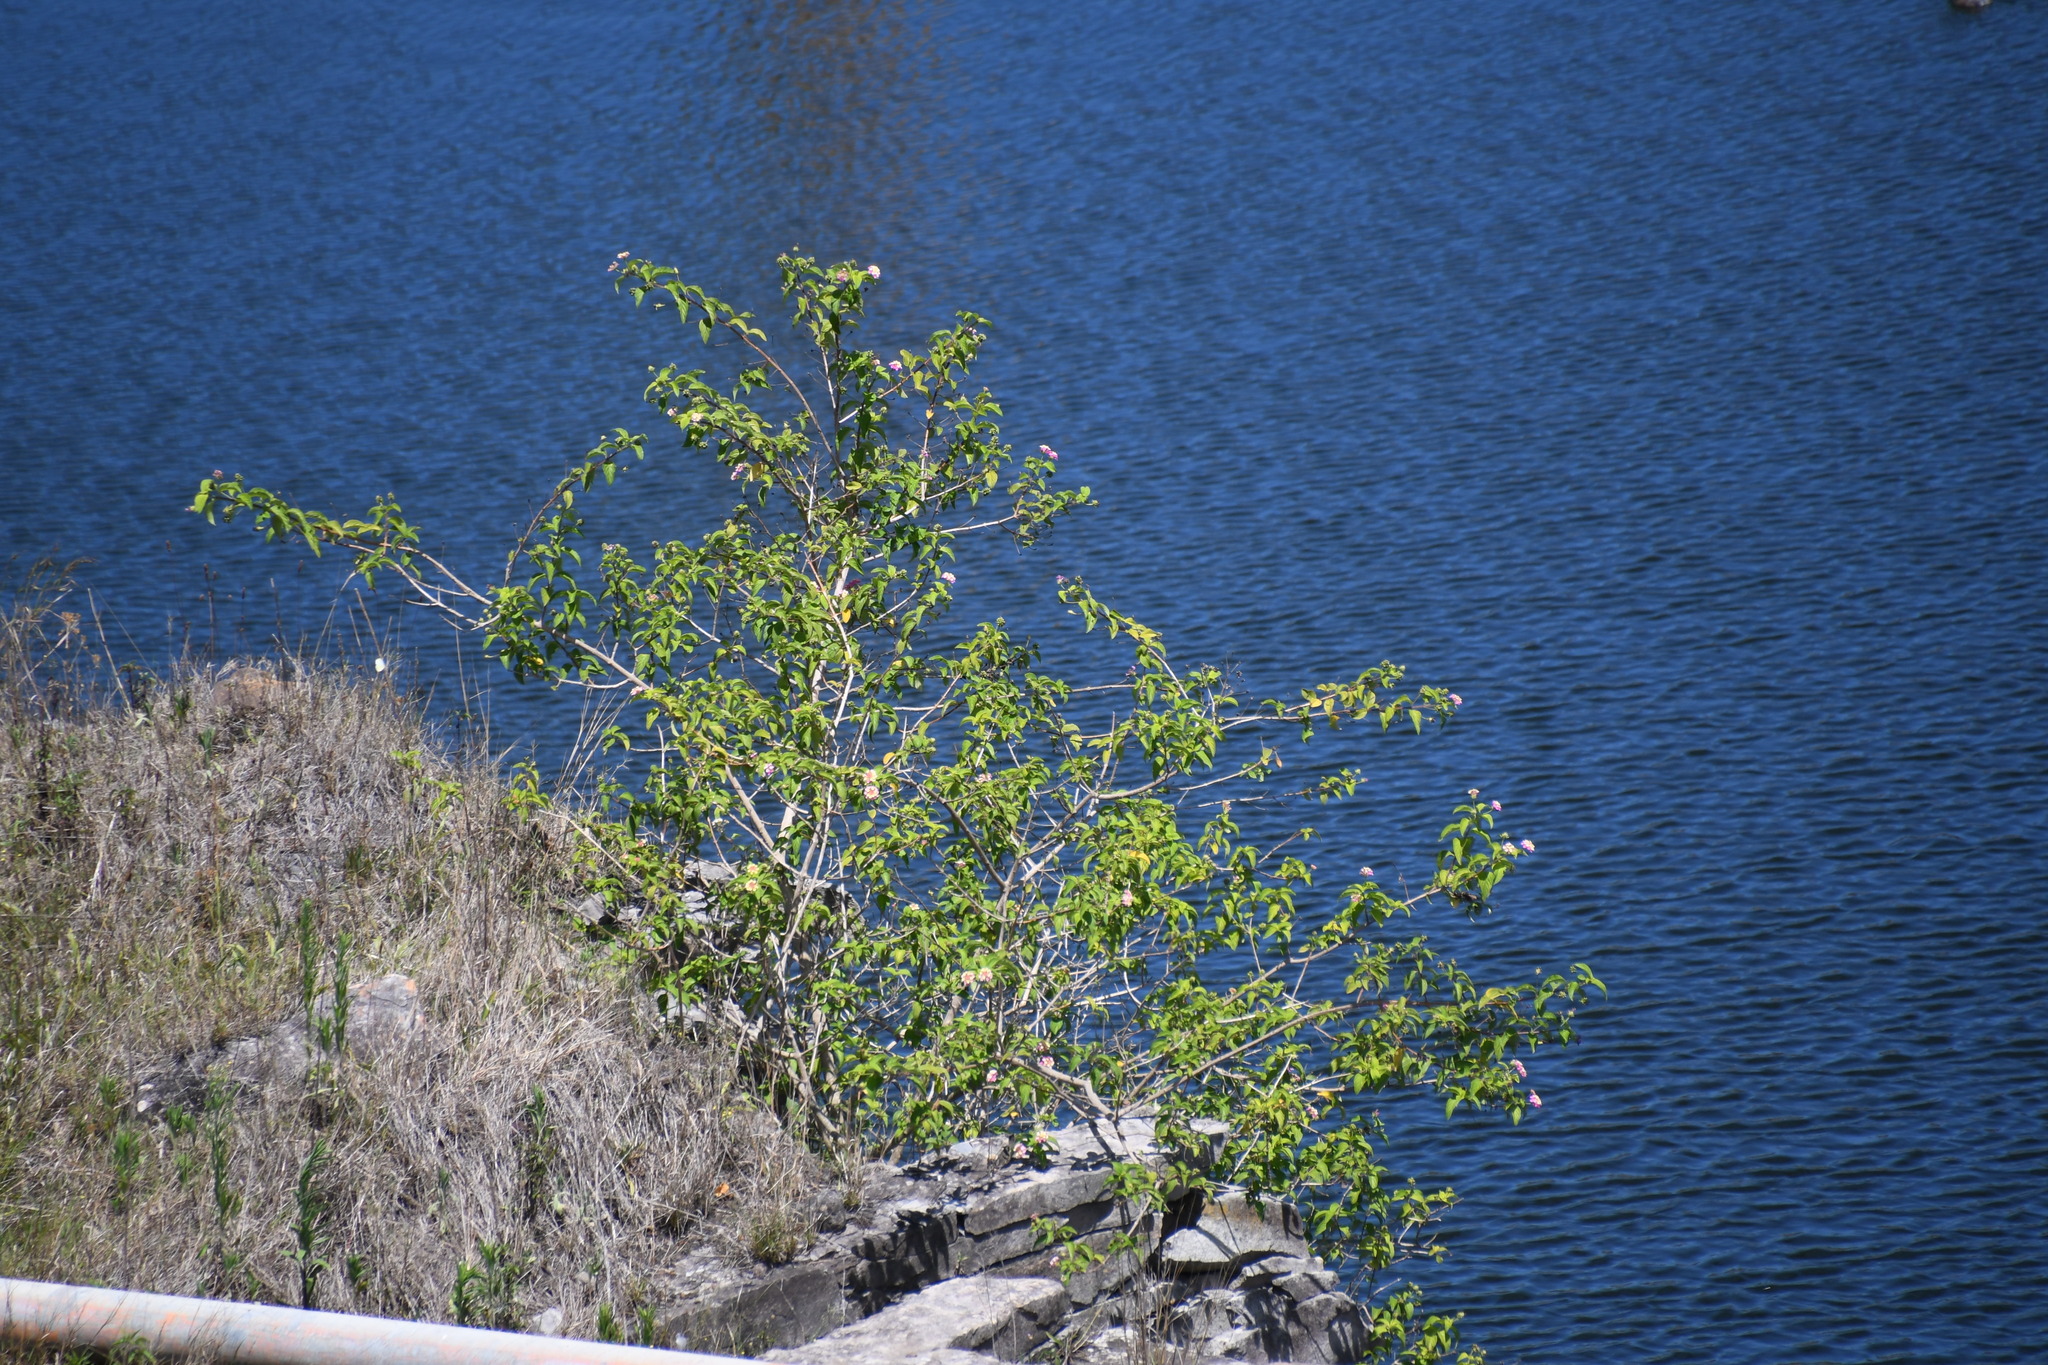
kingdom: Plantae
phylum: Tracheophyta
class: Magnoliopsida
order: Lamiales
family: Verbenaceae
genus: Lantana
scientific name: Lantana camara
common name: Lantana
